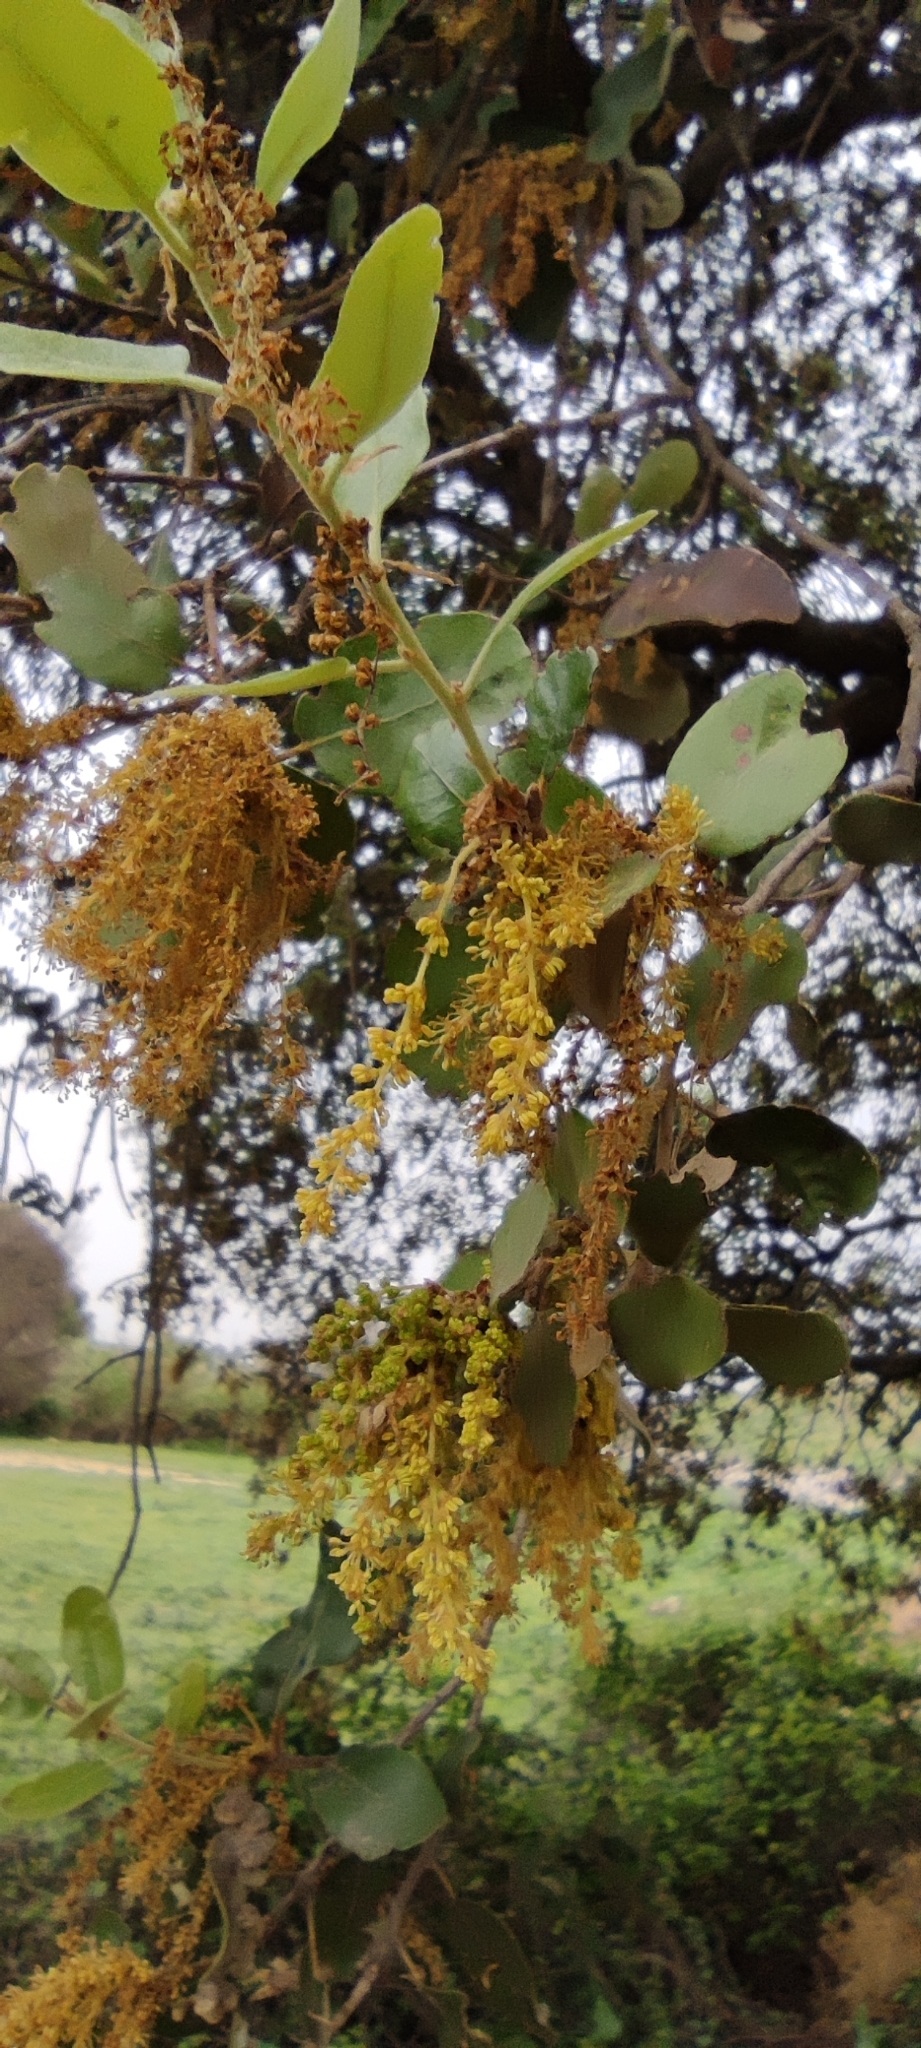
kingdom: Plantae
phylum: Tracheophyta
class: Magnoliopsida
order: Fagales
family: Fagaceae
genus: Quercus
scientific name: Quercus rotundifolia
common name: Holm oak
